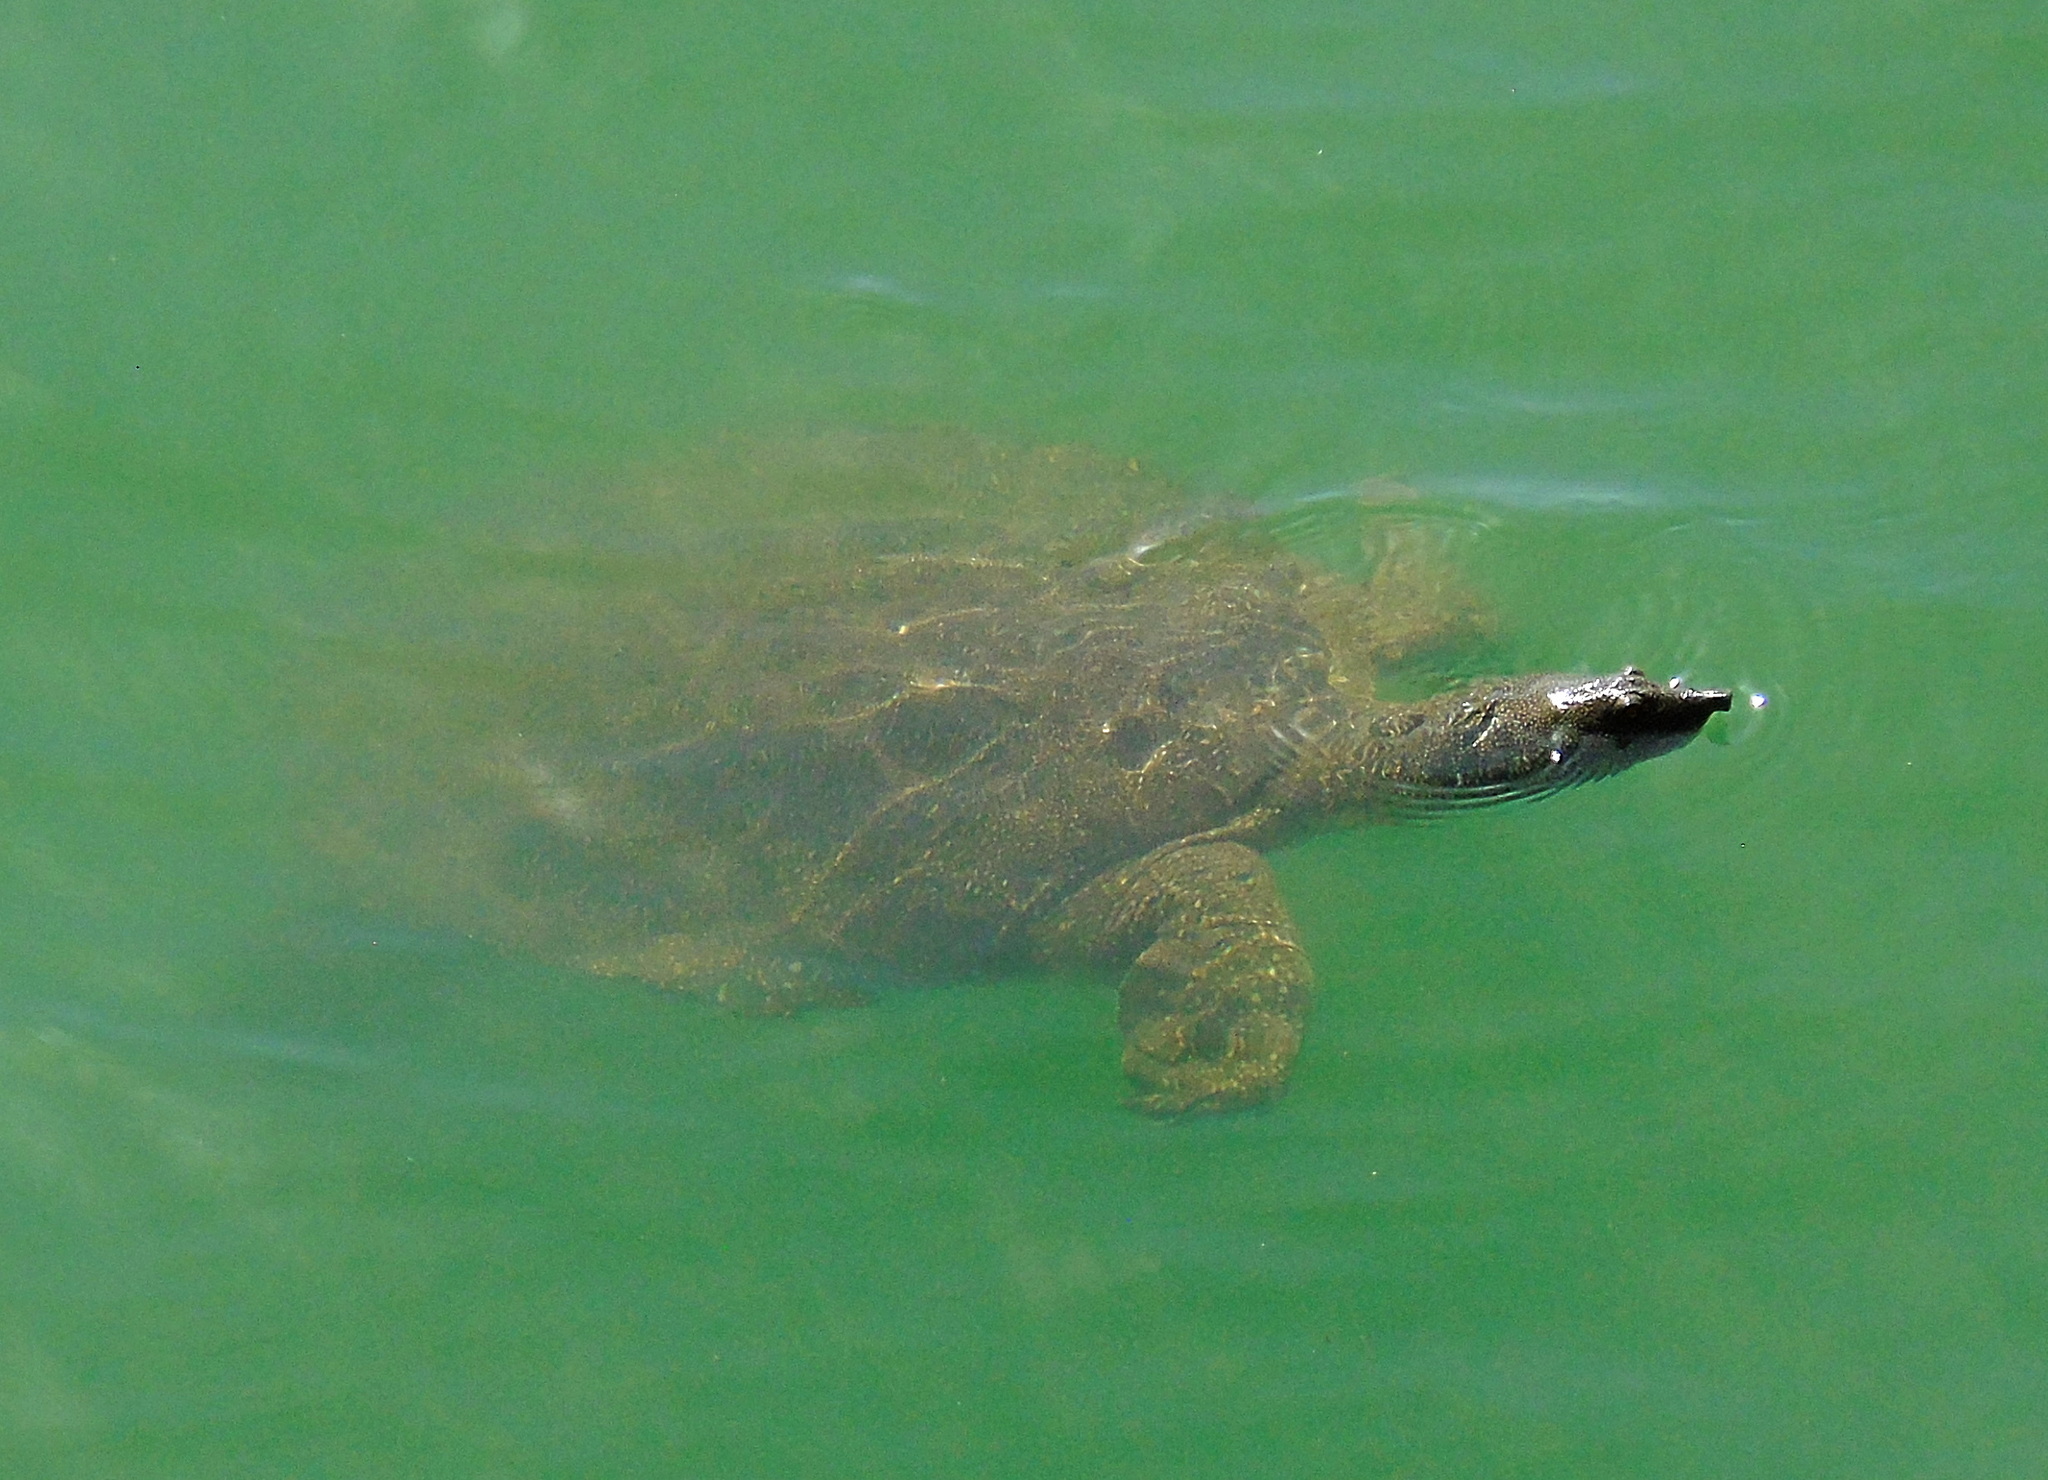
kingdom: Animalia
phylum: Chordata
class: Testudines
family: Trionychidae
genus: Trionyx
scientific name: Trionyx triunguis
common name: African softshell turtle
